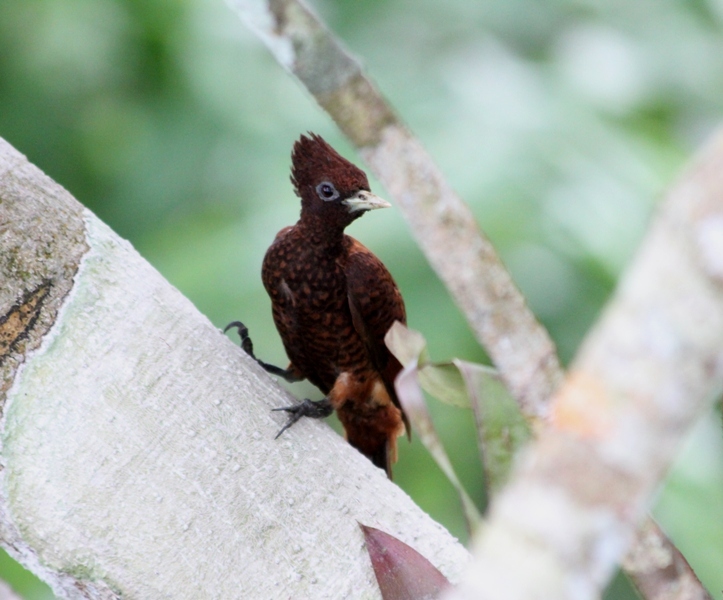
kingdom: Animalia
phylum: Chordata
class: Aves
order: Piciformes
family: Picidae
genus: Celeus
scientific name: Celeus undatus
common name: Waved woodpecker
